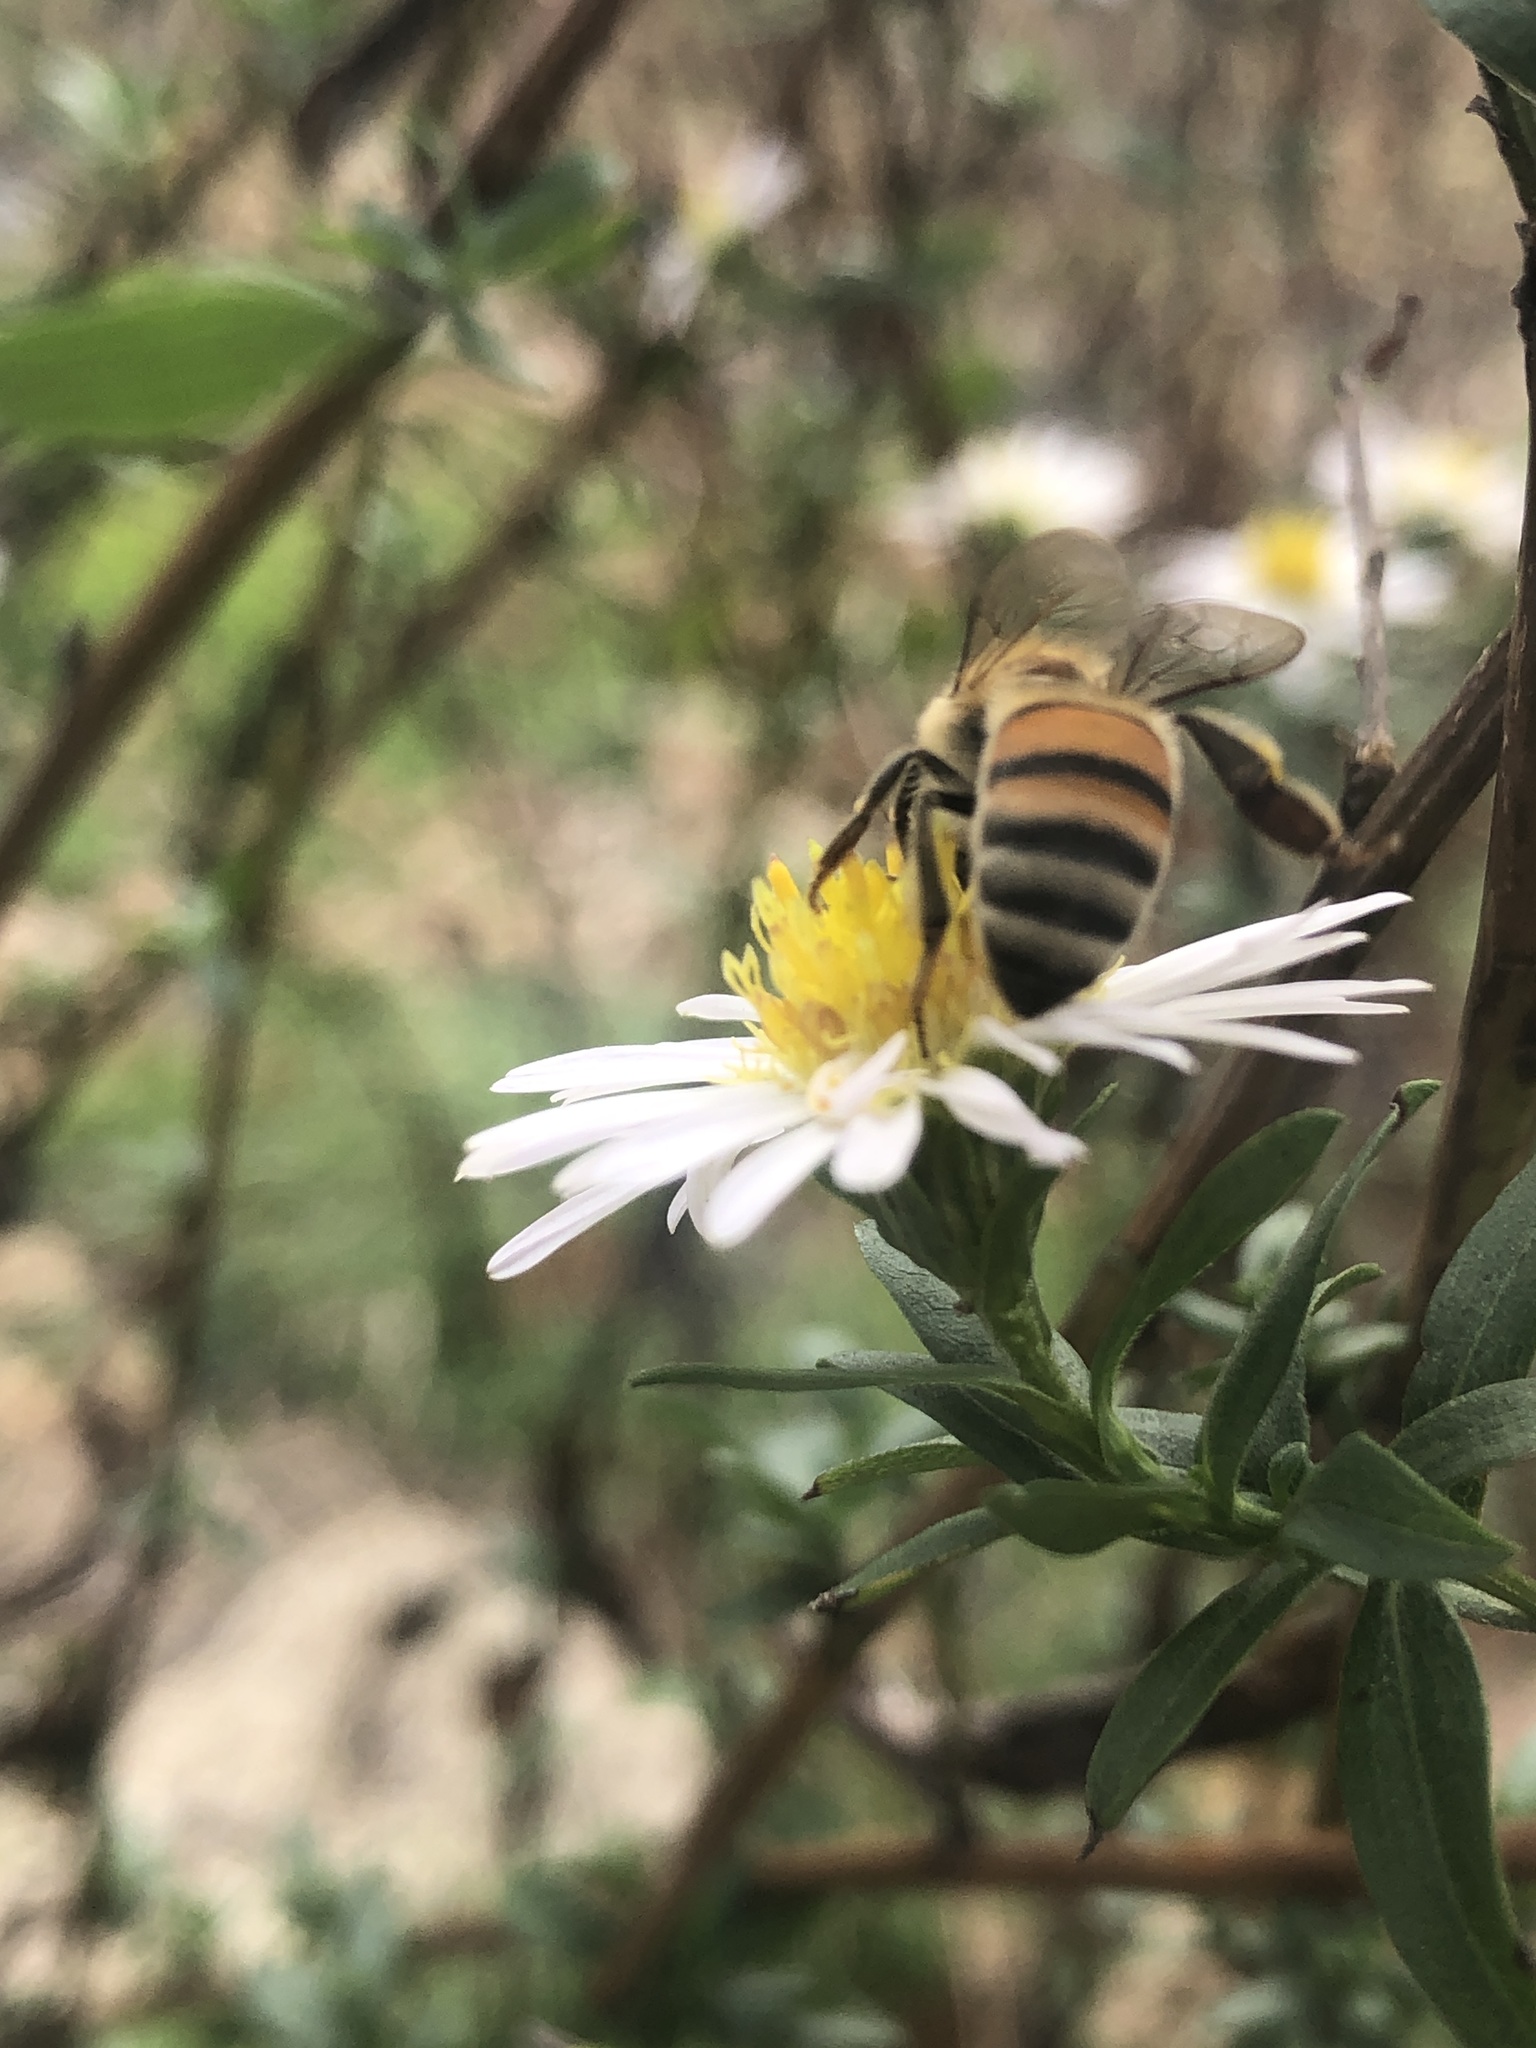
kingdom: Animalia
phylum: Arthropoda
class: Insecta
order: Hymenoptera
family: Apidae
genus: Apis
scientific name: Apis mellifera
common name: Honey bee
